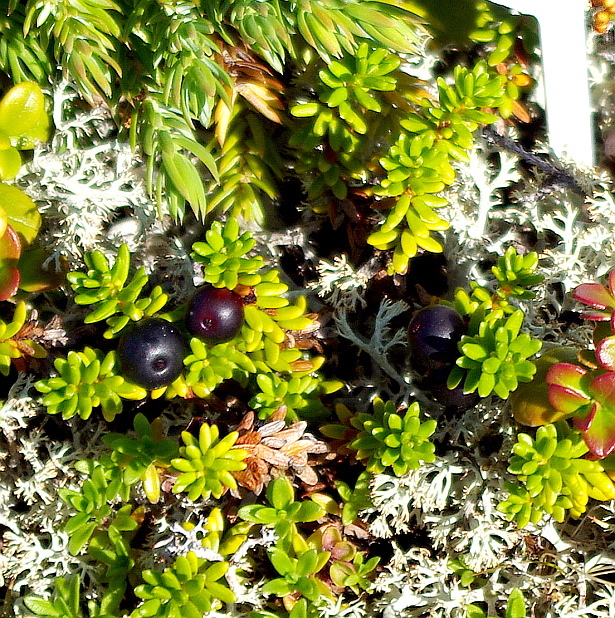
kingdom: Plantae
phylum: Tracheophyta
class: Magnoliopsida
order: Ericales
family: Ericaceae
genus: Empetrum
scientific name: Empetrum nigrum
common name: Black crowberry
